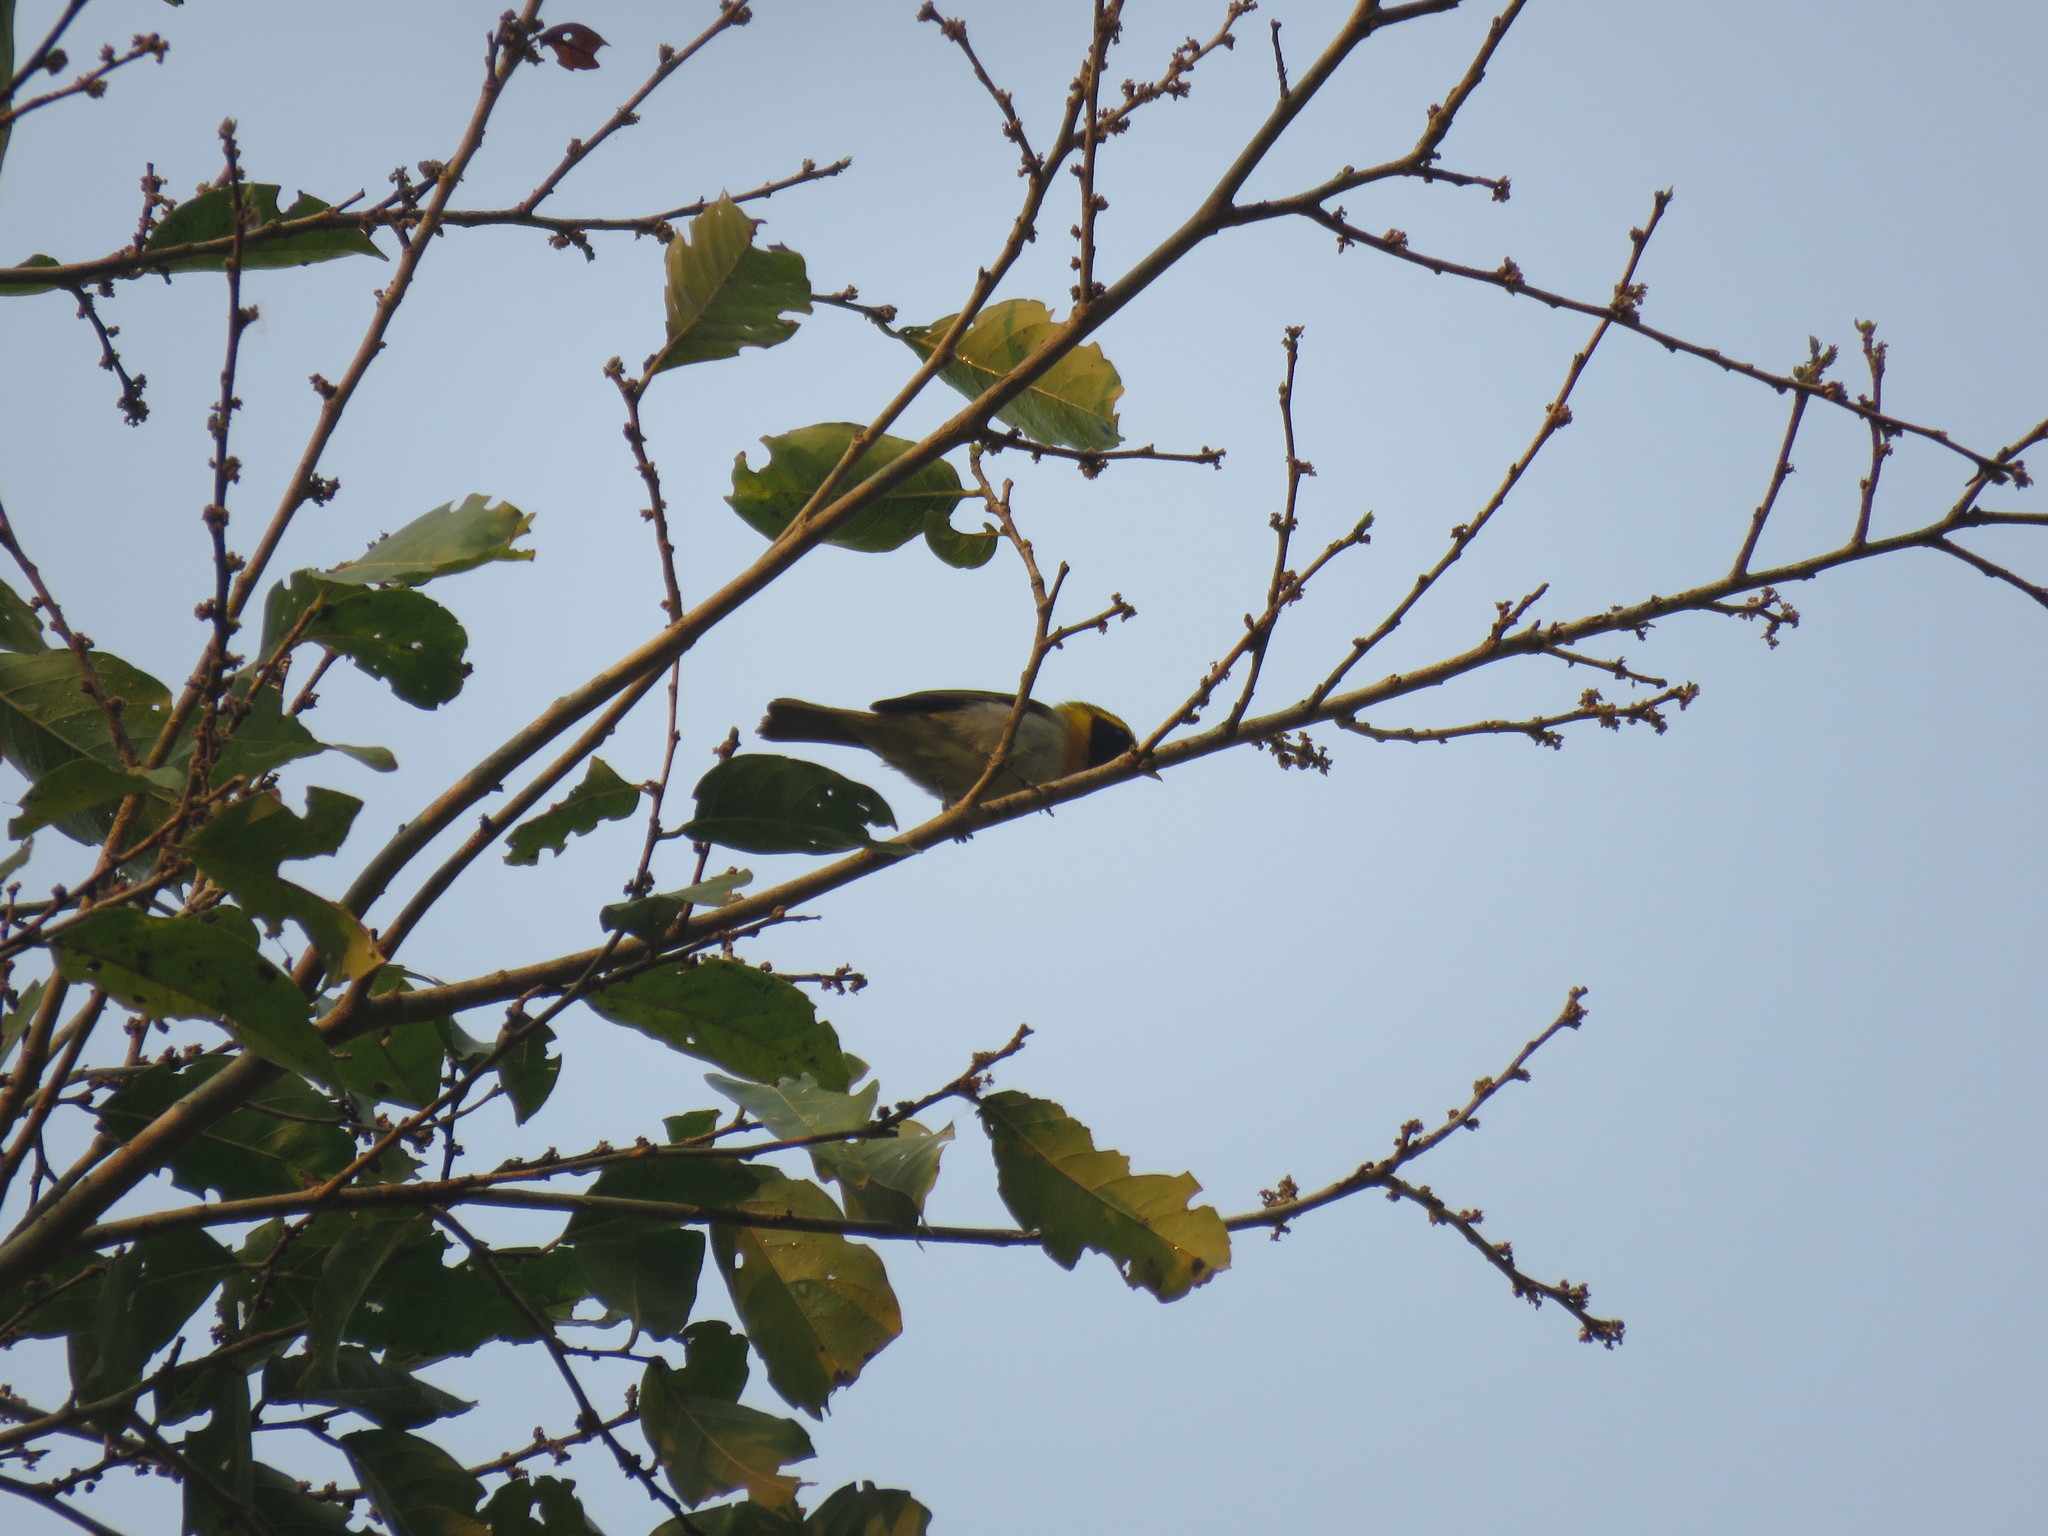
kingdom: Animalia
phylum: Chordata
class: Aves
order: Passeriformes
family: Thraupidae
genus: Hemithraupis
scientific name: Hemithraupis guira
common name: Guira tanager
